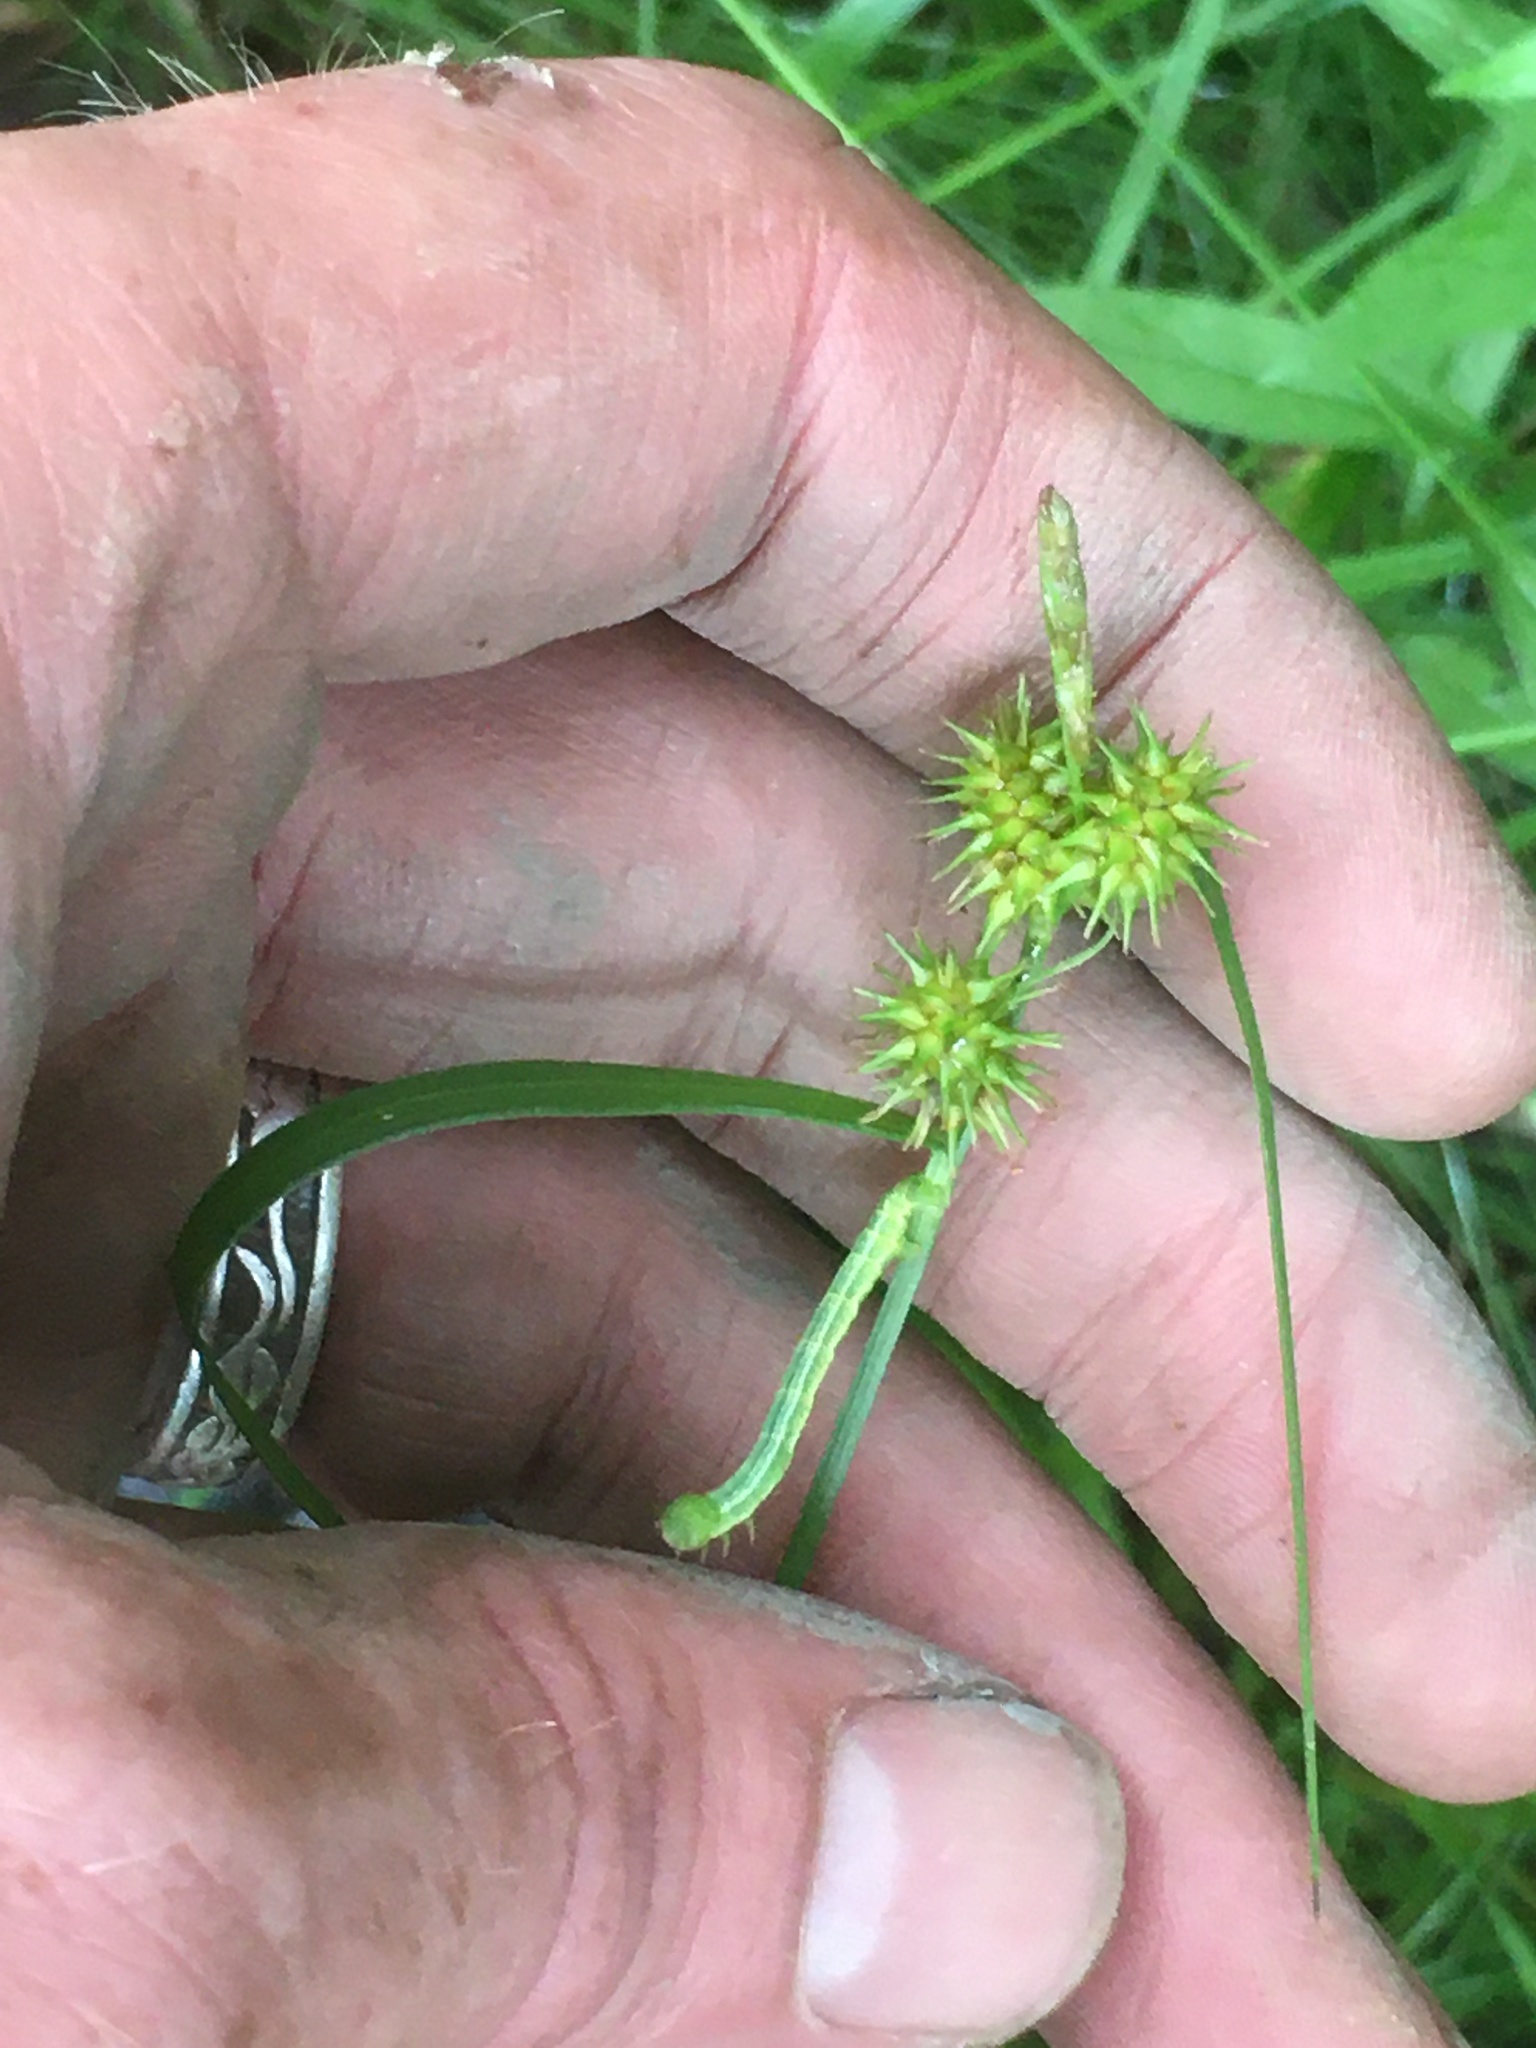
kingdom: Plantae
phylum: Tracheophyta
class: Liliopsida
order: Poales
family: Cyperaceae
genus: Carex
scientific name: Carex flava
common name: Large yellow-sedge
